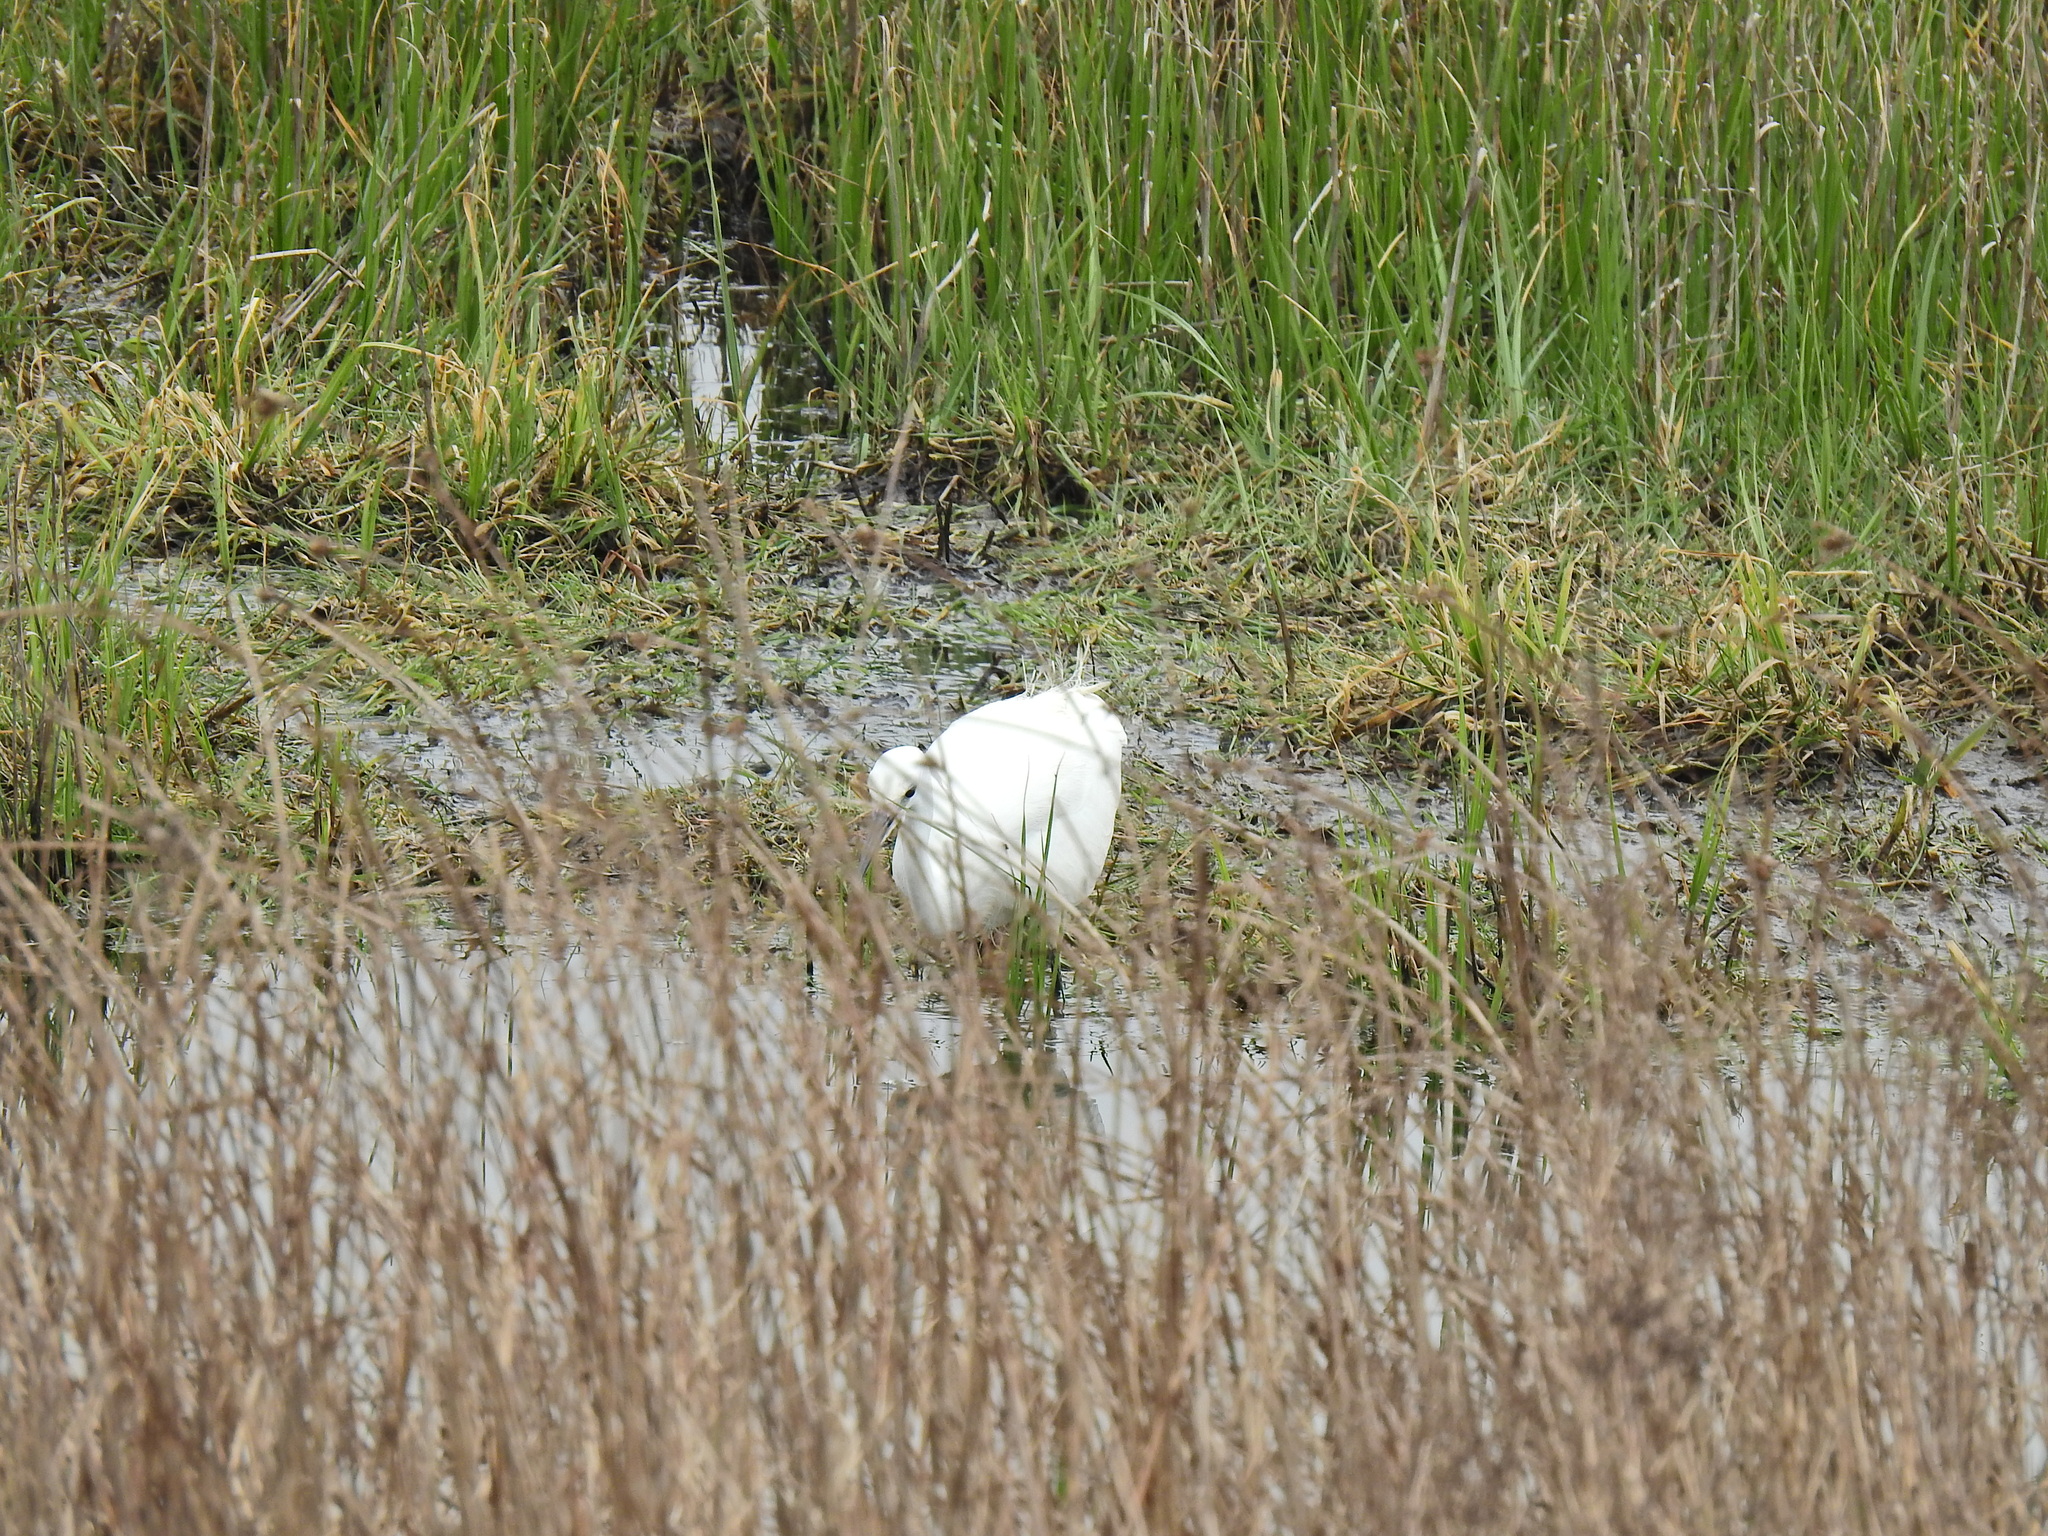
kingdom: Animalia
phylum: Chordata
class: Aves
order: Pelecaniformes
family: Ardeidae
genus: Egretta
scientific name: Egretta garzetta
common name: Little egret
